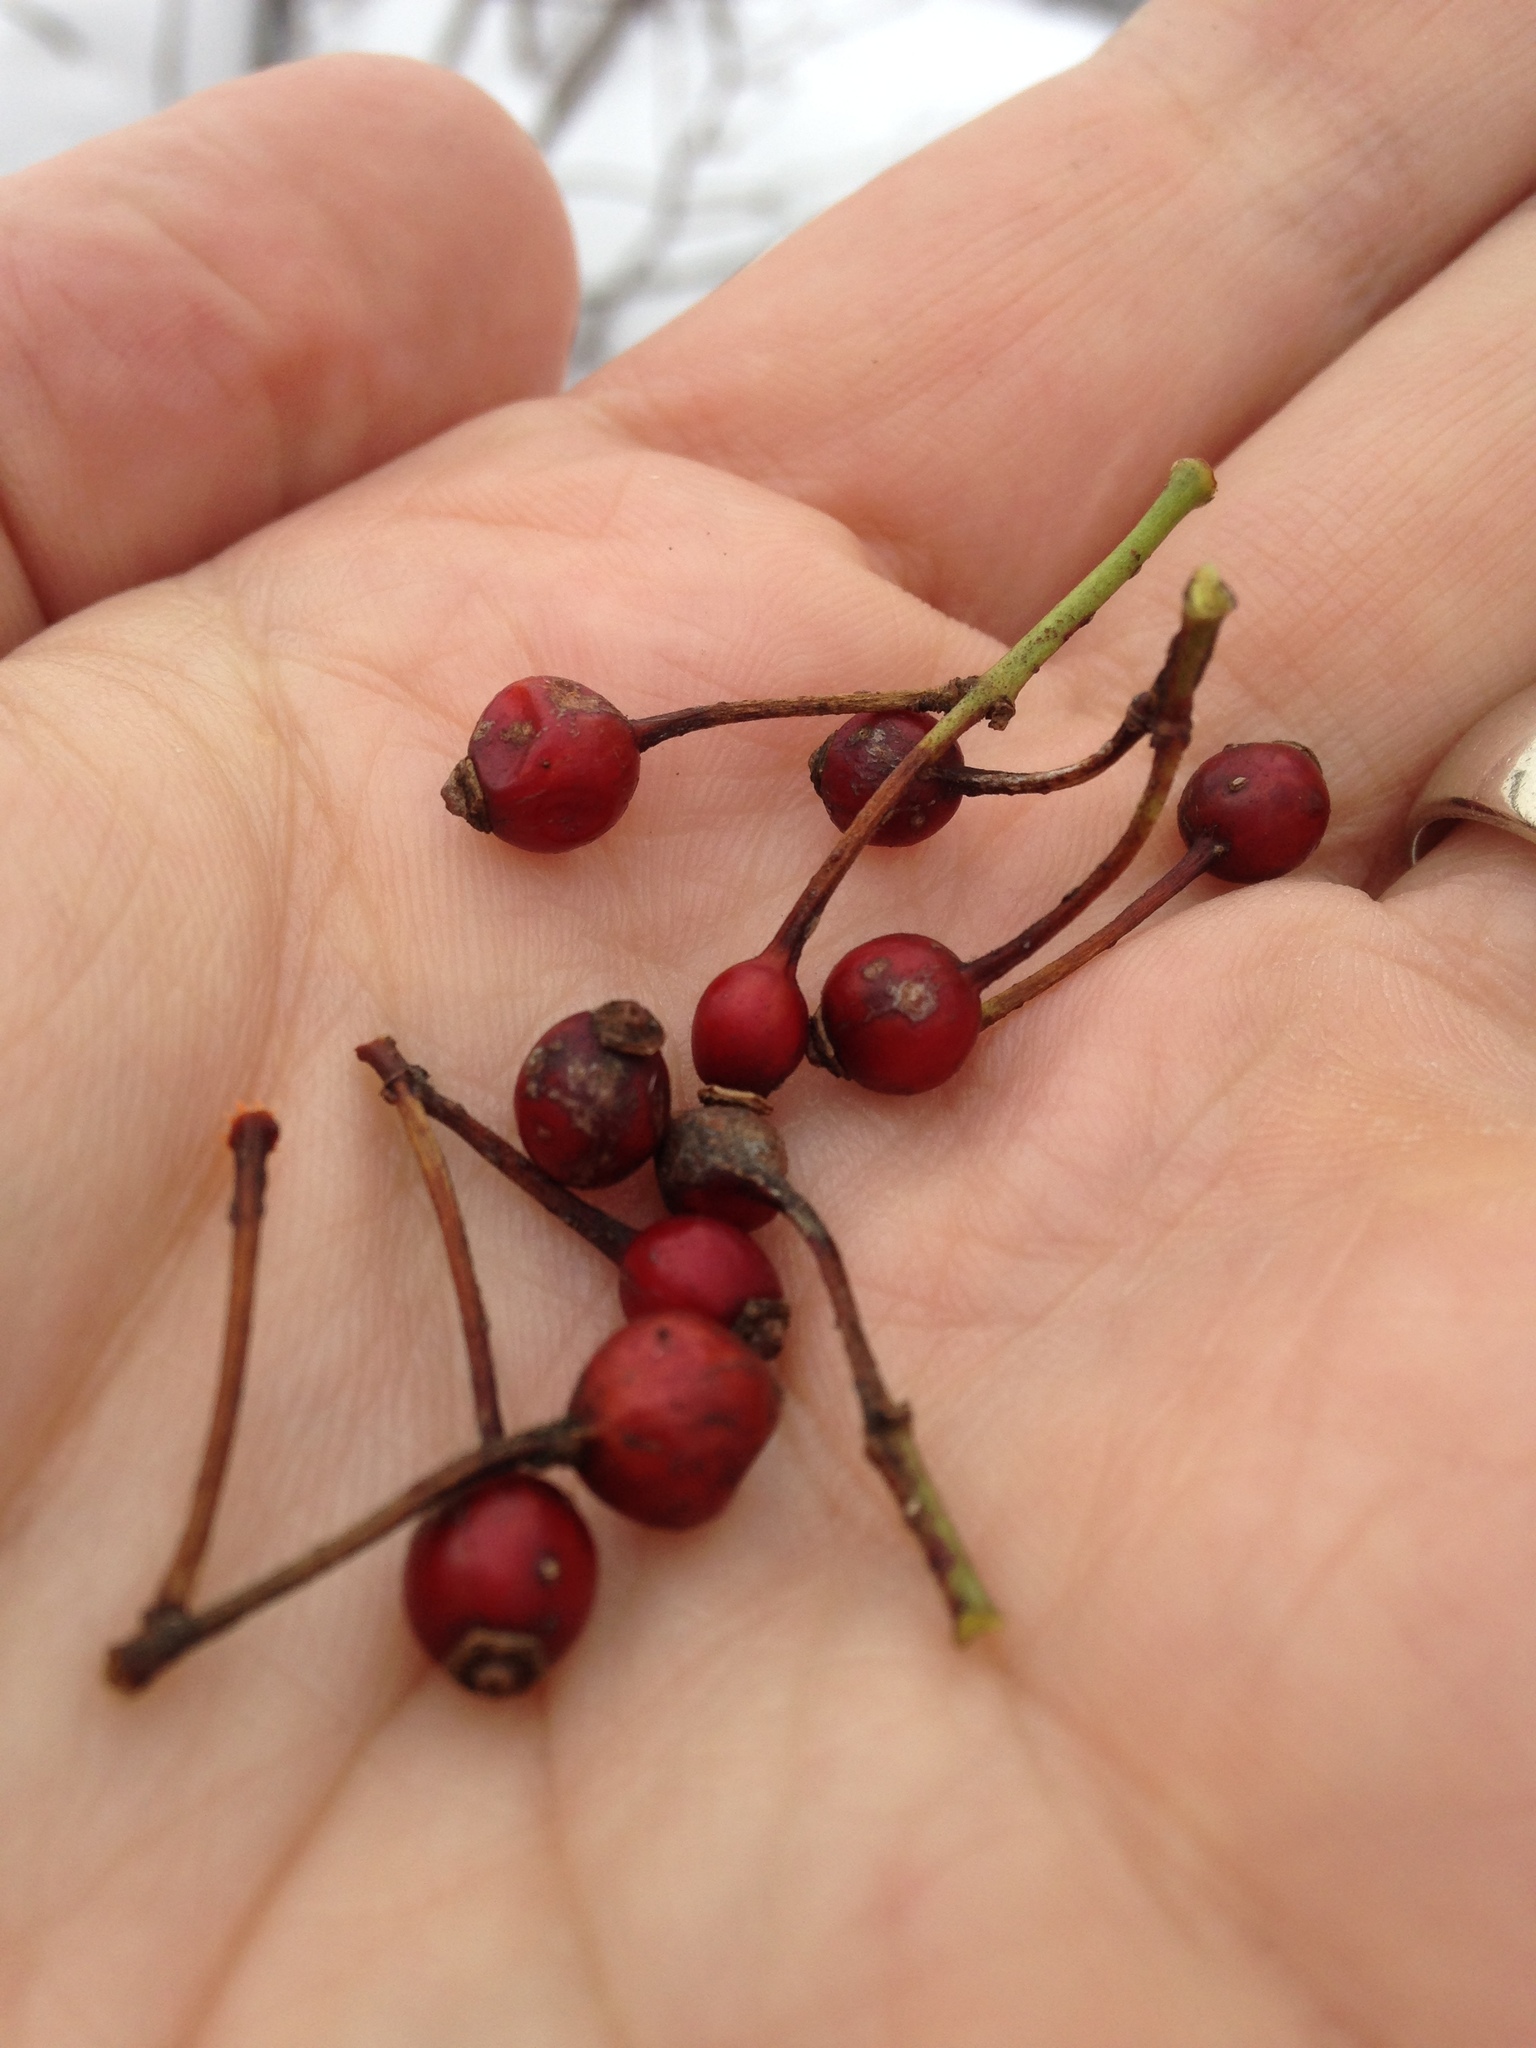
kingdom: Plantae
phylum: Tracheophyta
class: Magnoliopsida
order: Rosales
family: Rosaceae
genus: Rosa
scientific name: Rosa multiflora
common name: Multiflora rose
